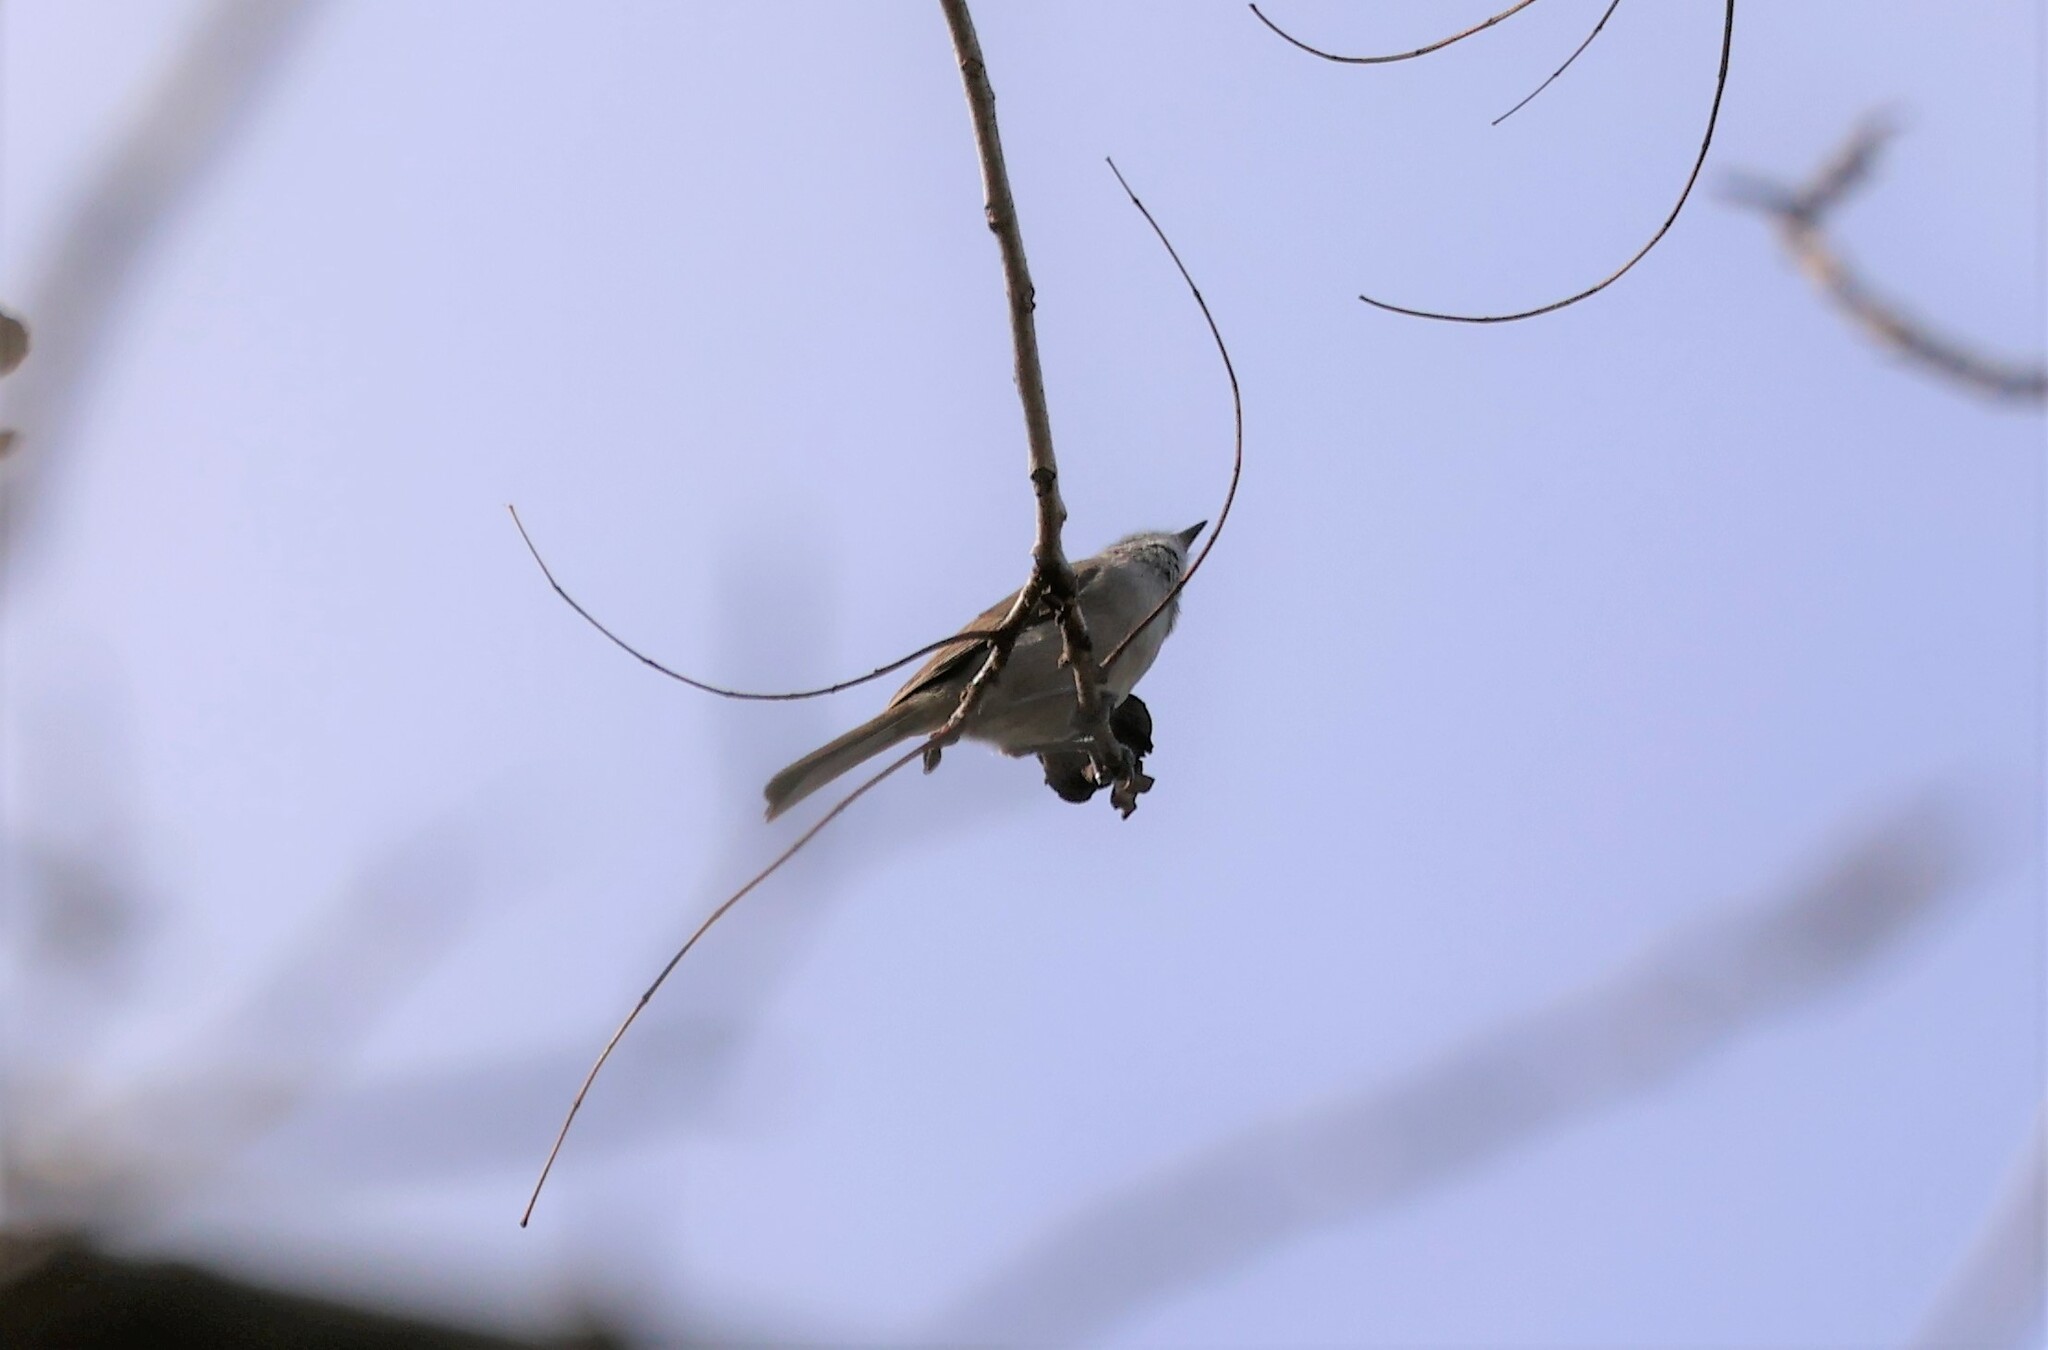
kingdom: Animalia
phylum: Chordata
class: Aves
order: Passeriformes
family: Paridae
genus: Baeolophus
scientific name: Baeolophus inornatus
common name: Oak titmouse
